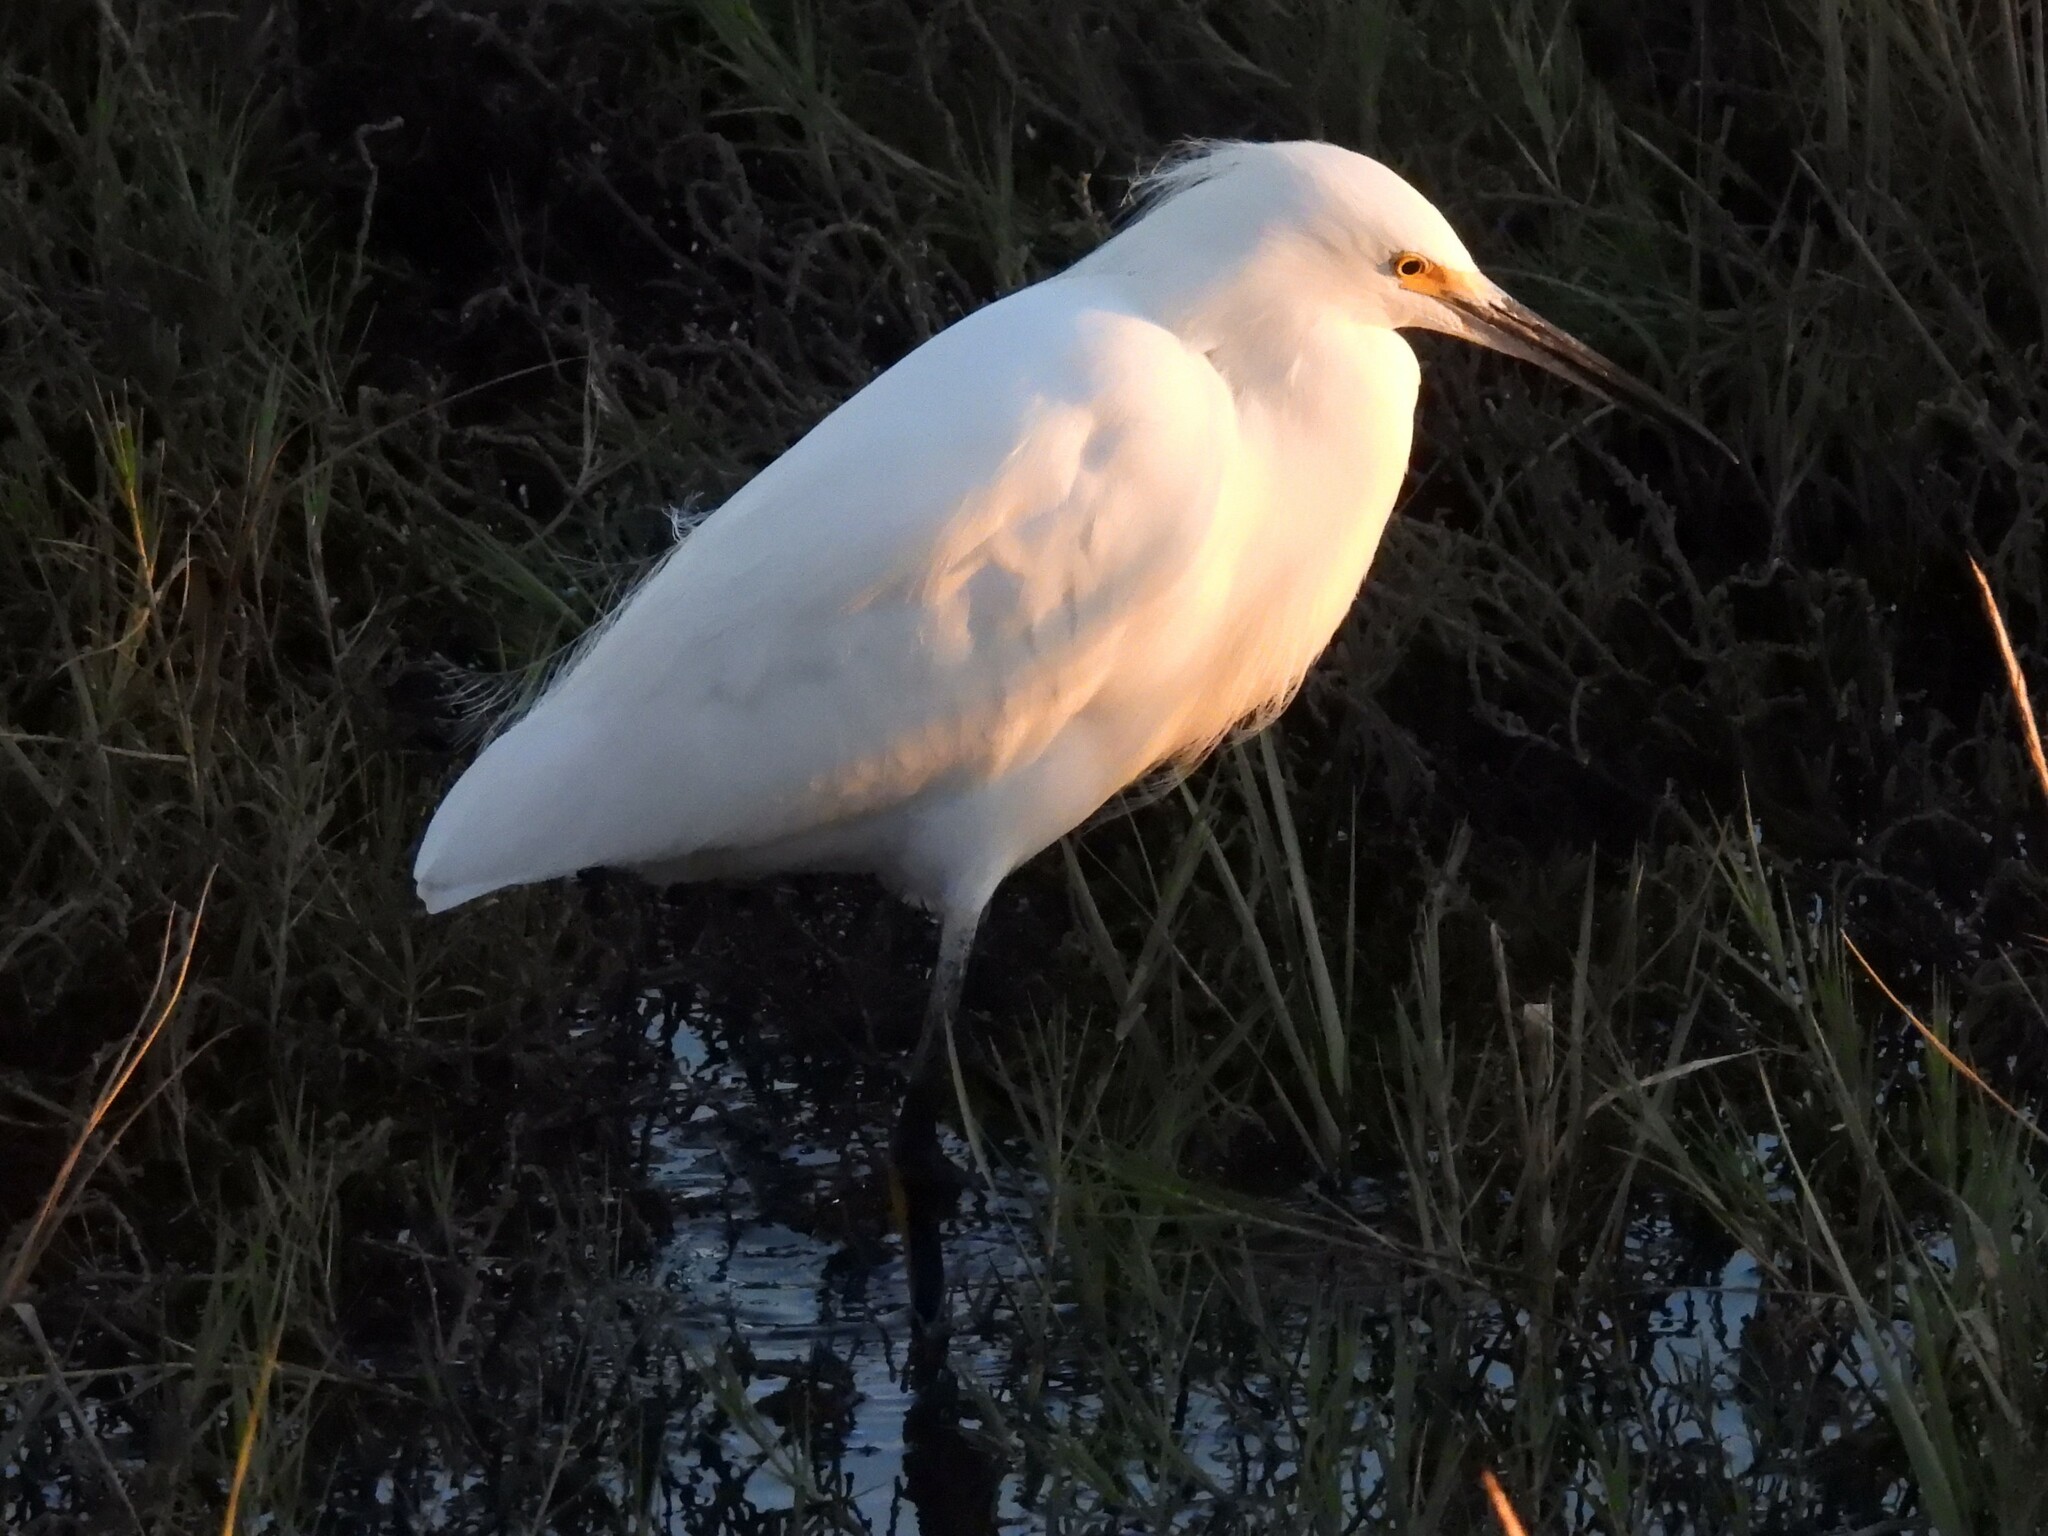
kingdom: Animalia
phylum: Chordata
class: Aves
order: Pelecaniformes
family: Ardeidae
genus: Egretta
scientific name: Egretta thula
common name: Snowy egret
